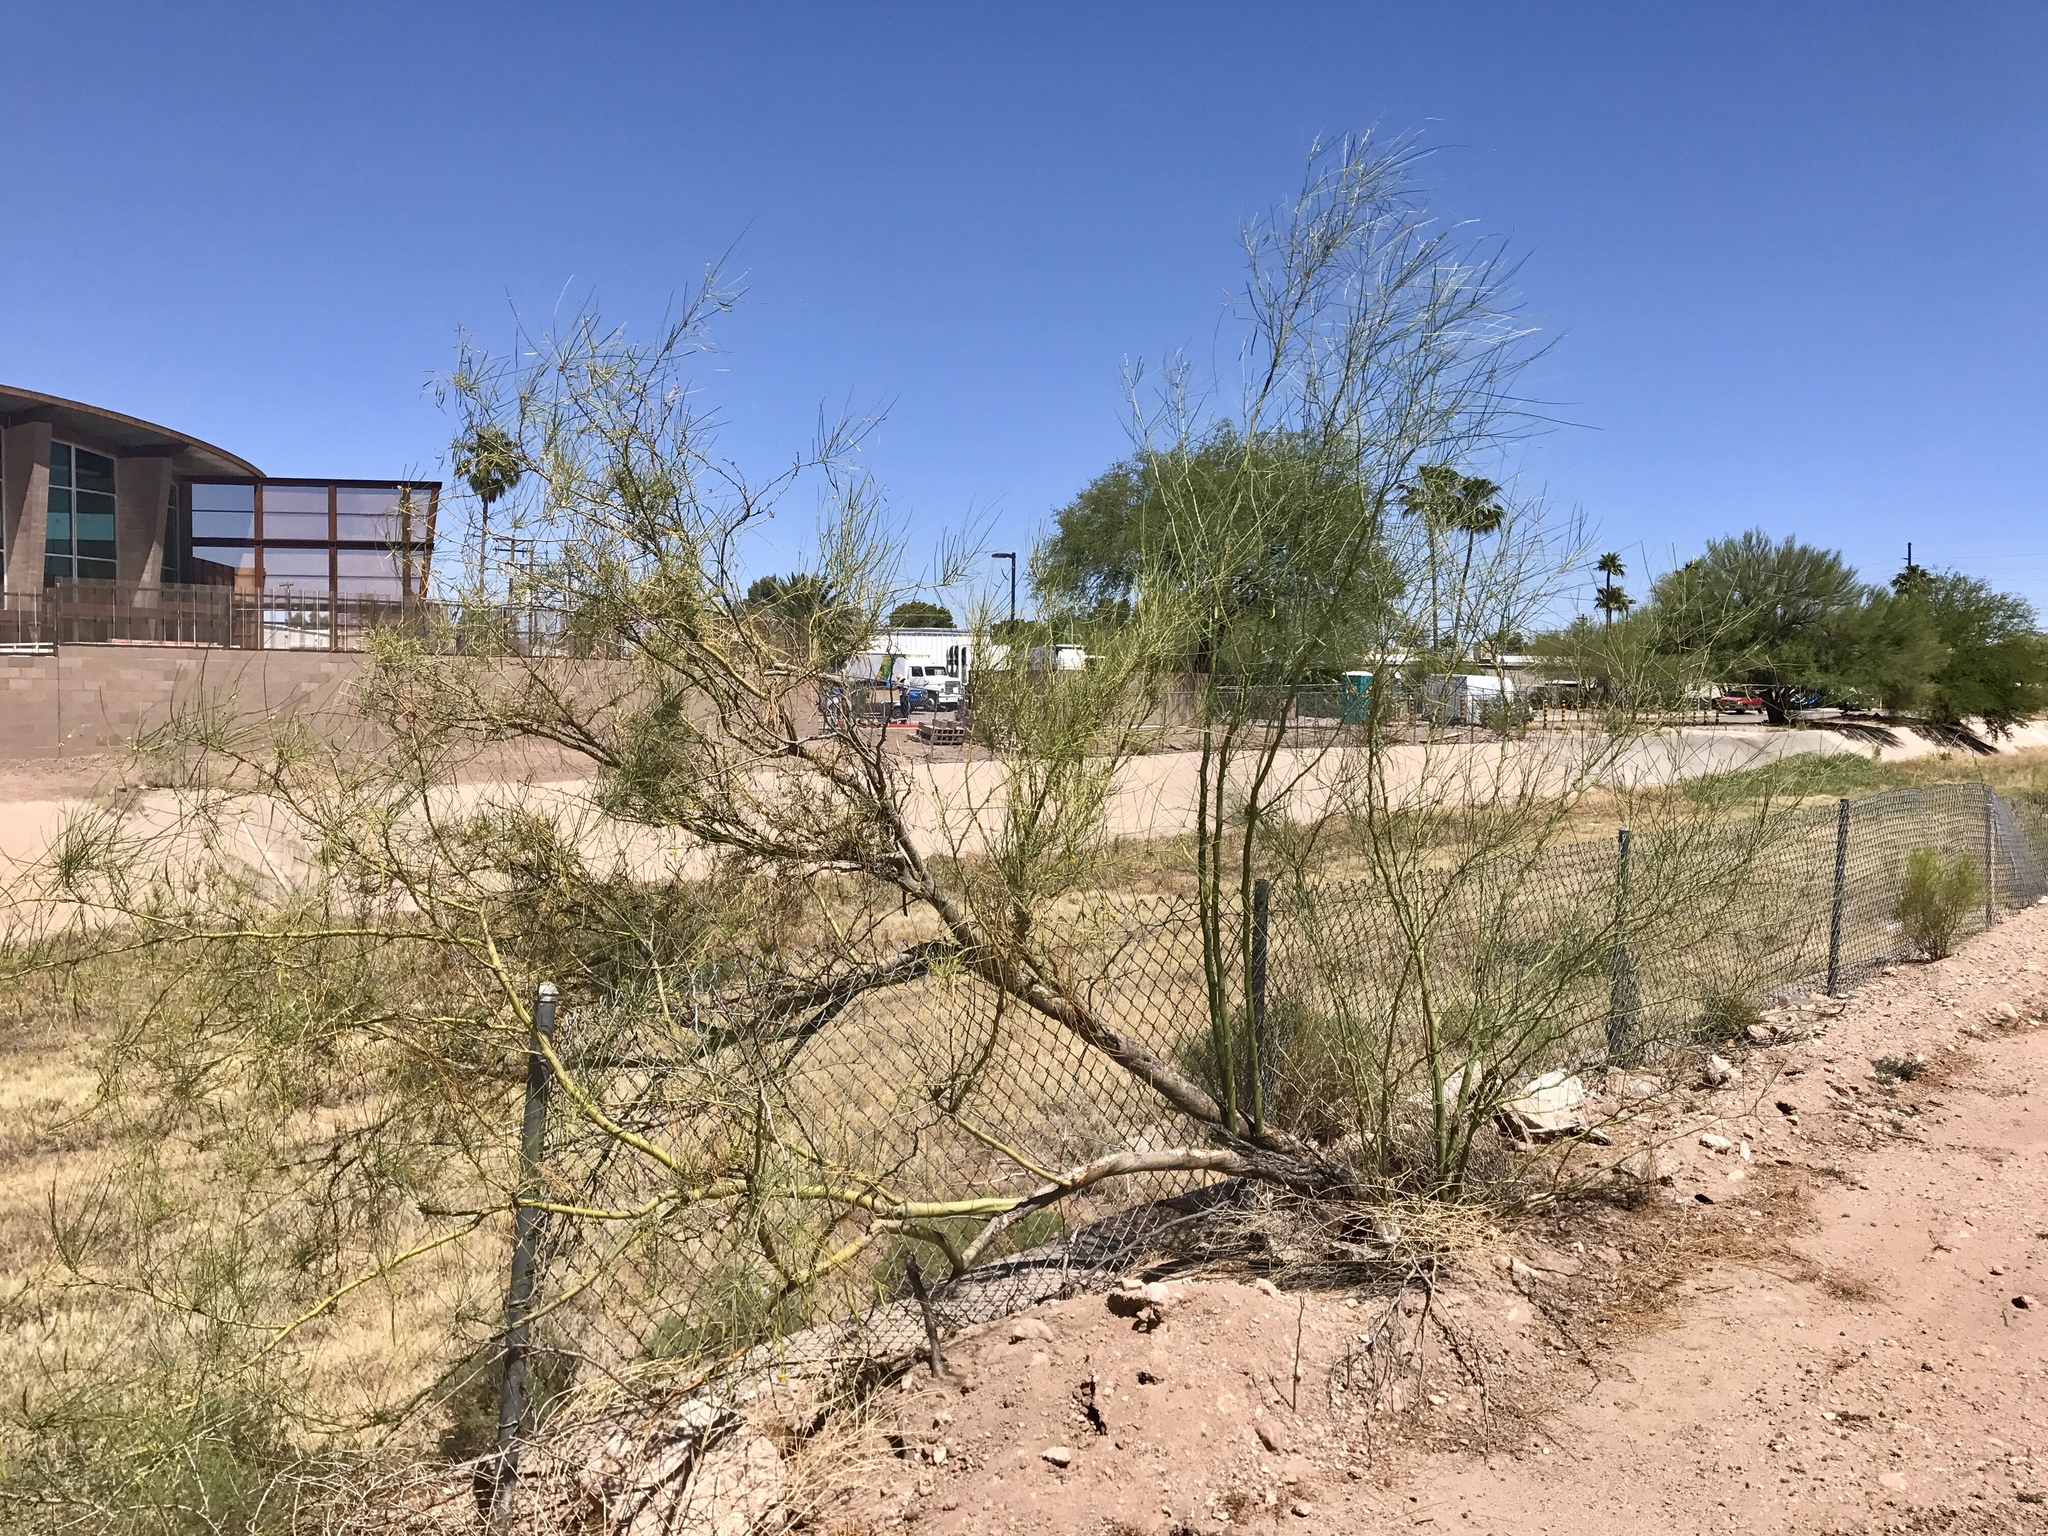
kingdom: Plantae
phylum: Tracheophyta
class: Magnoliopsida
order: Fabales
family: Fabaceae
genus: Parkinsonia
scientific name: Parkinsonia aculeata
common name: Jerusalem thorn
